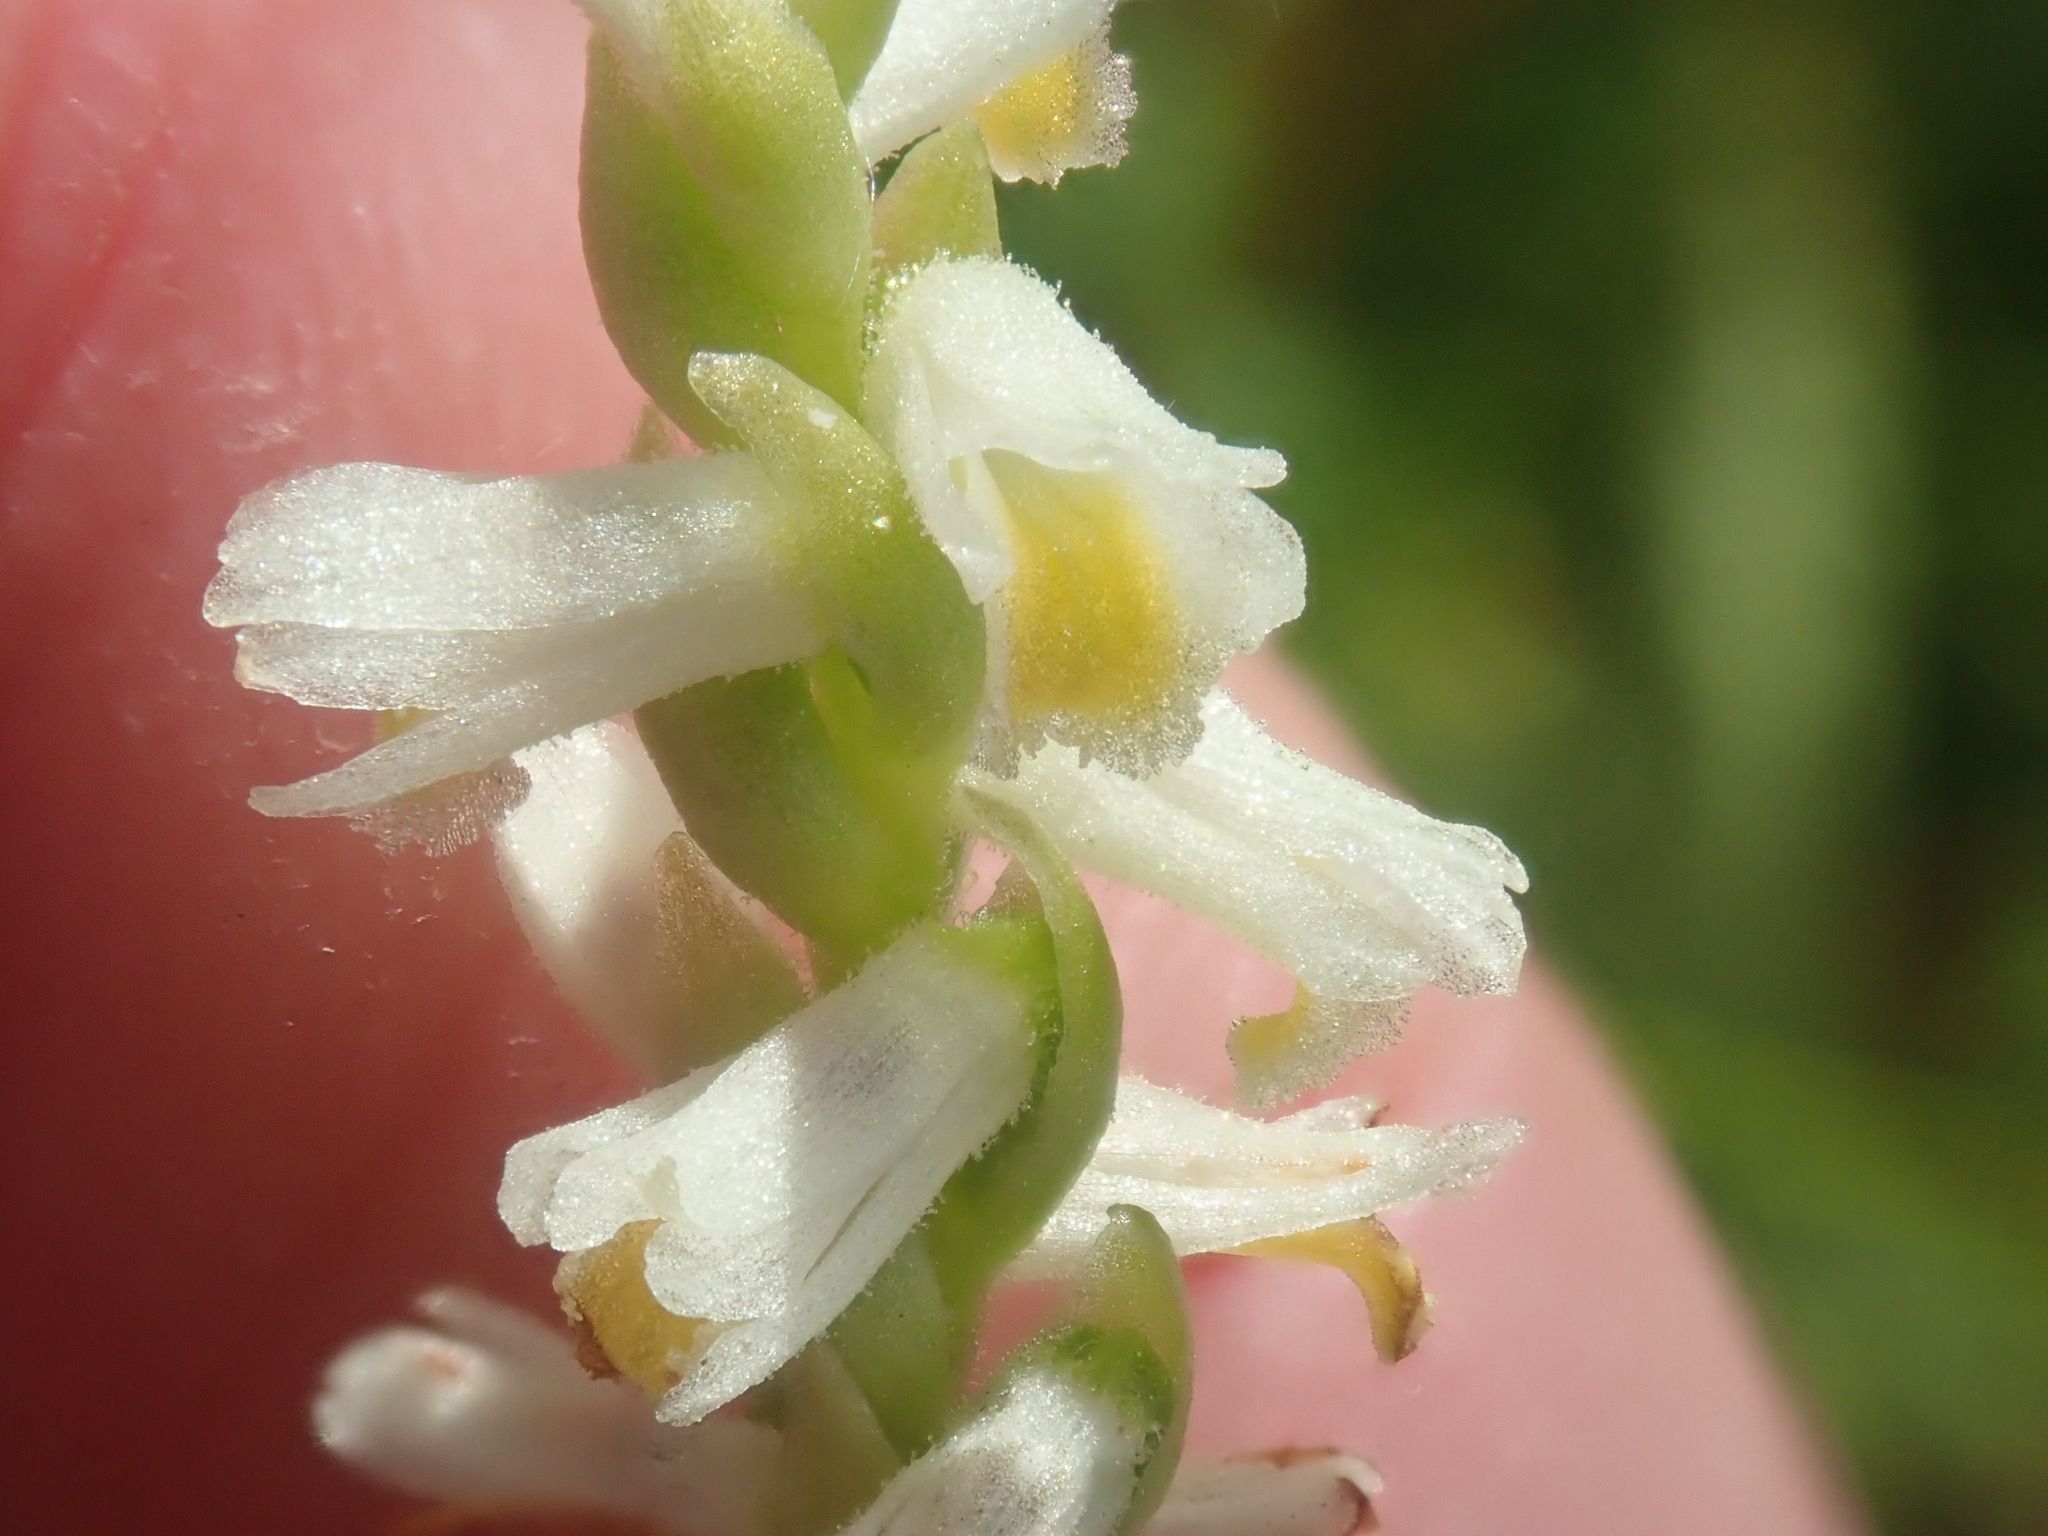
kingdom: Plantae
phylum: Tracheophyta
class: Liliopsida
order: Asparagales
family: Orchidaceae
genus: Spiranthes
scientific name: Spiranthes lucida
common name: Broad-leaved ladies'-tresses
